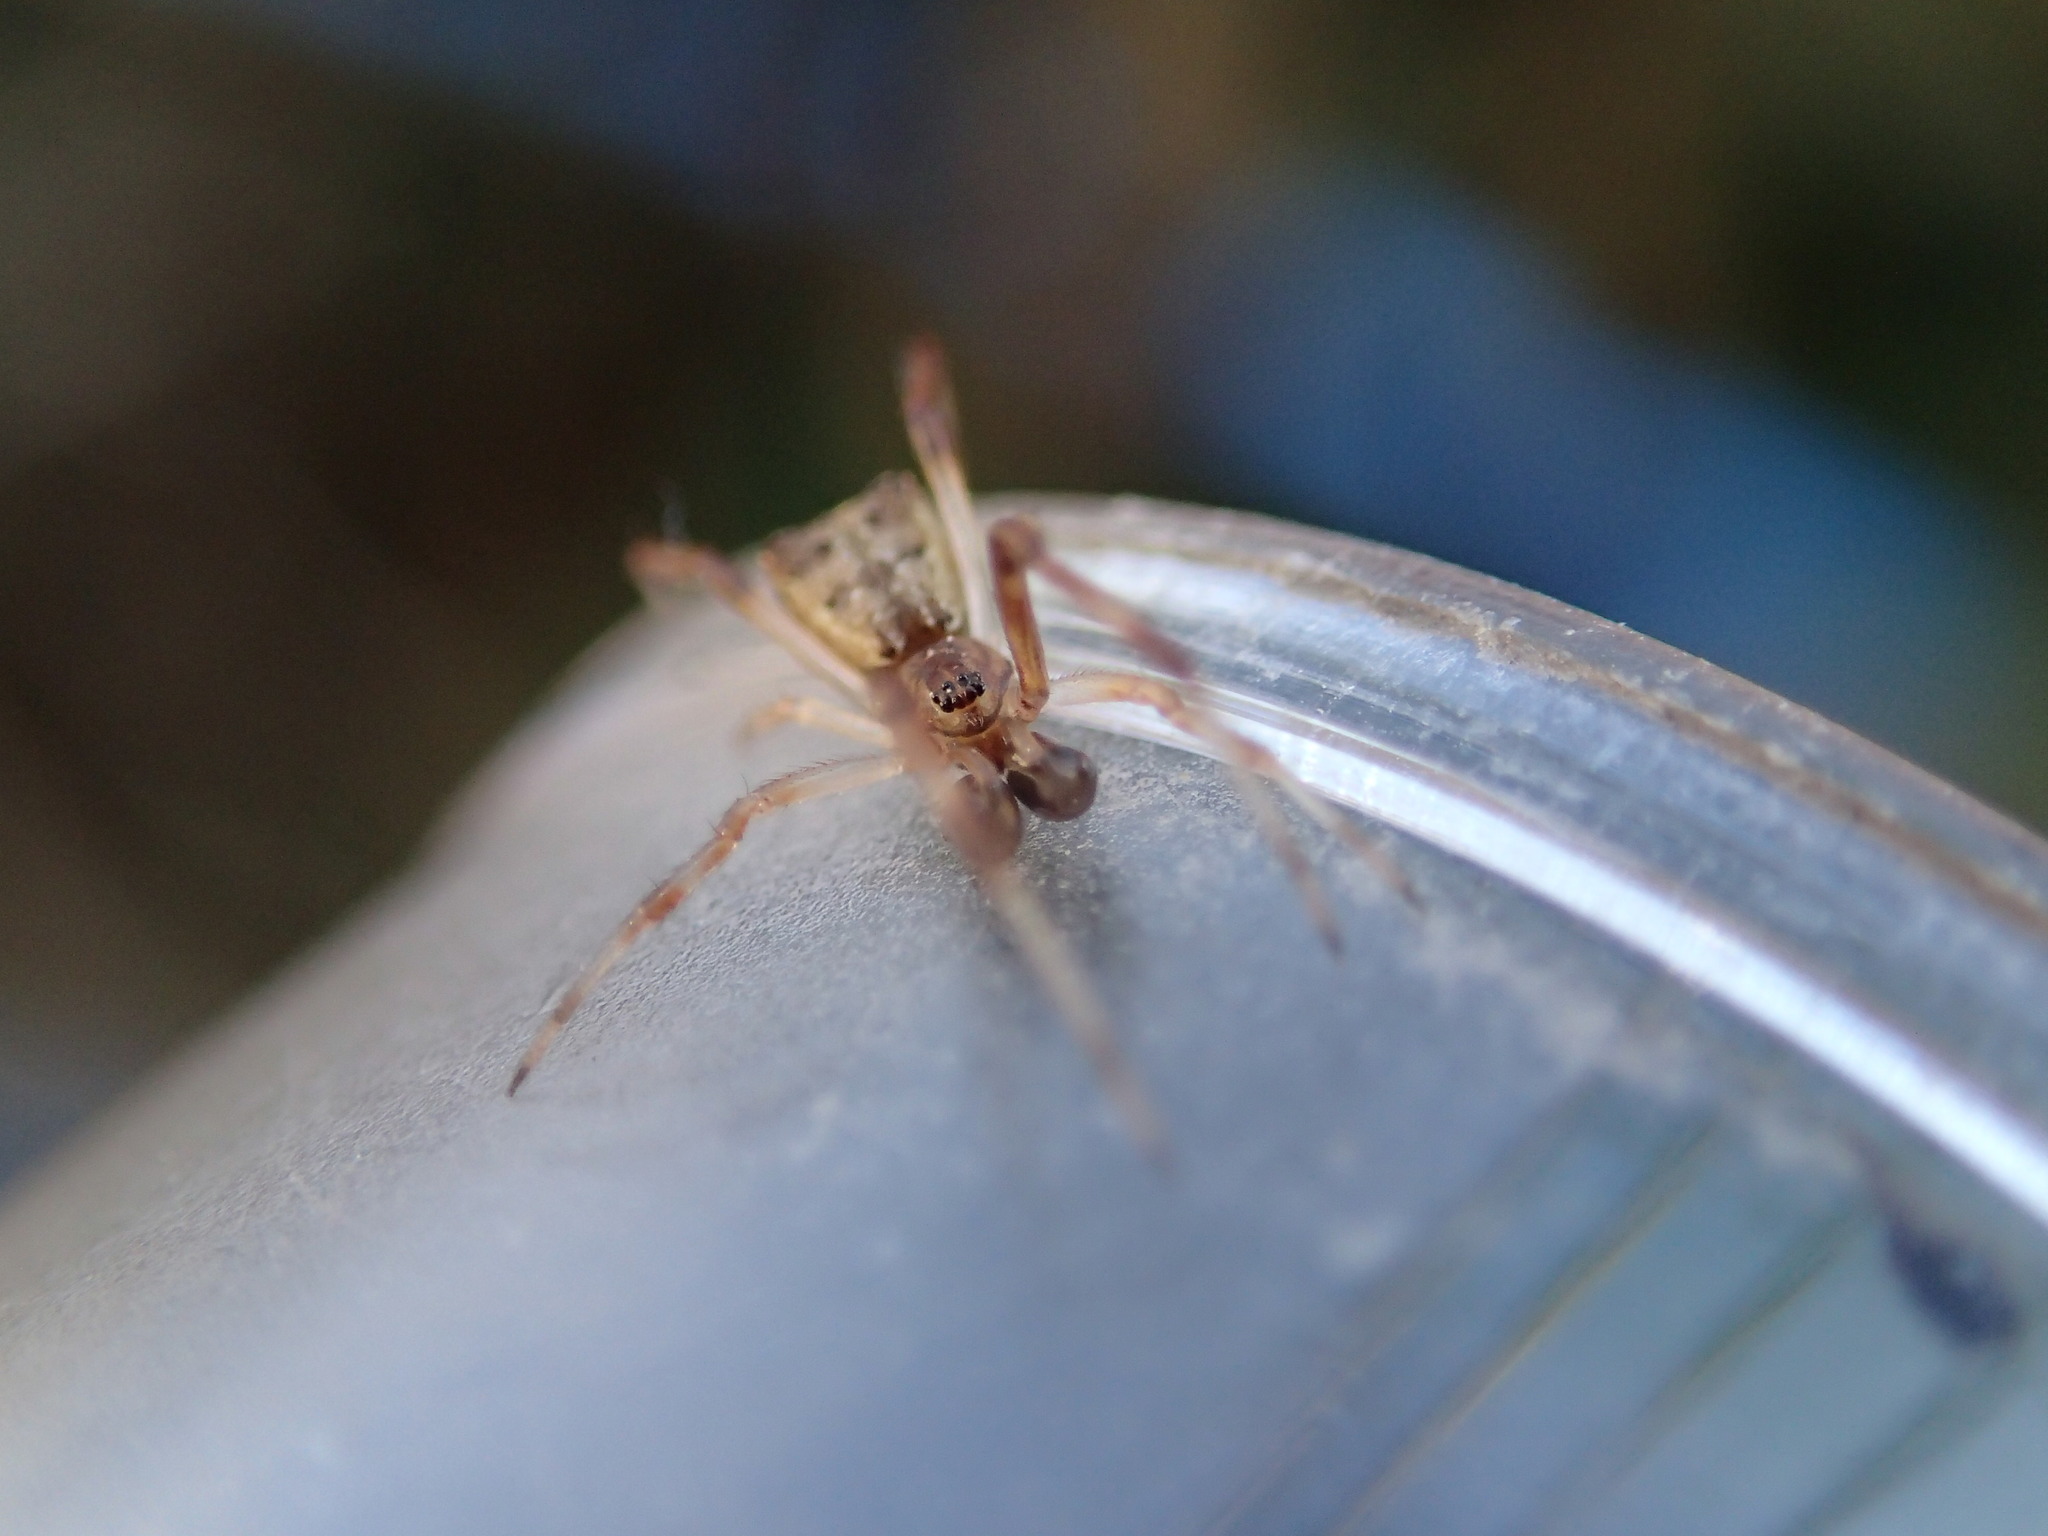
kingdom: Animalia
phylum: Arthropoda
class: Arachnida
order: Araneae
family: Theridiidae
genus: Episinus
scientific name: Episinus angulatus
